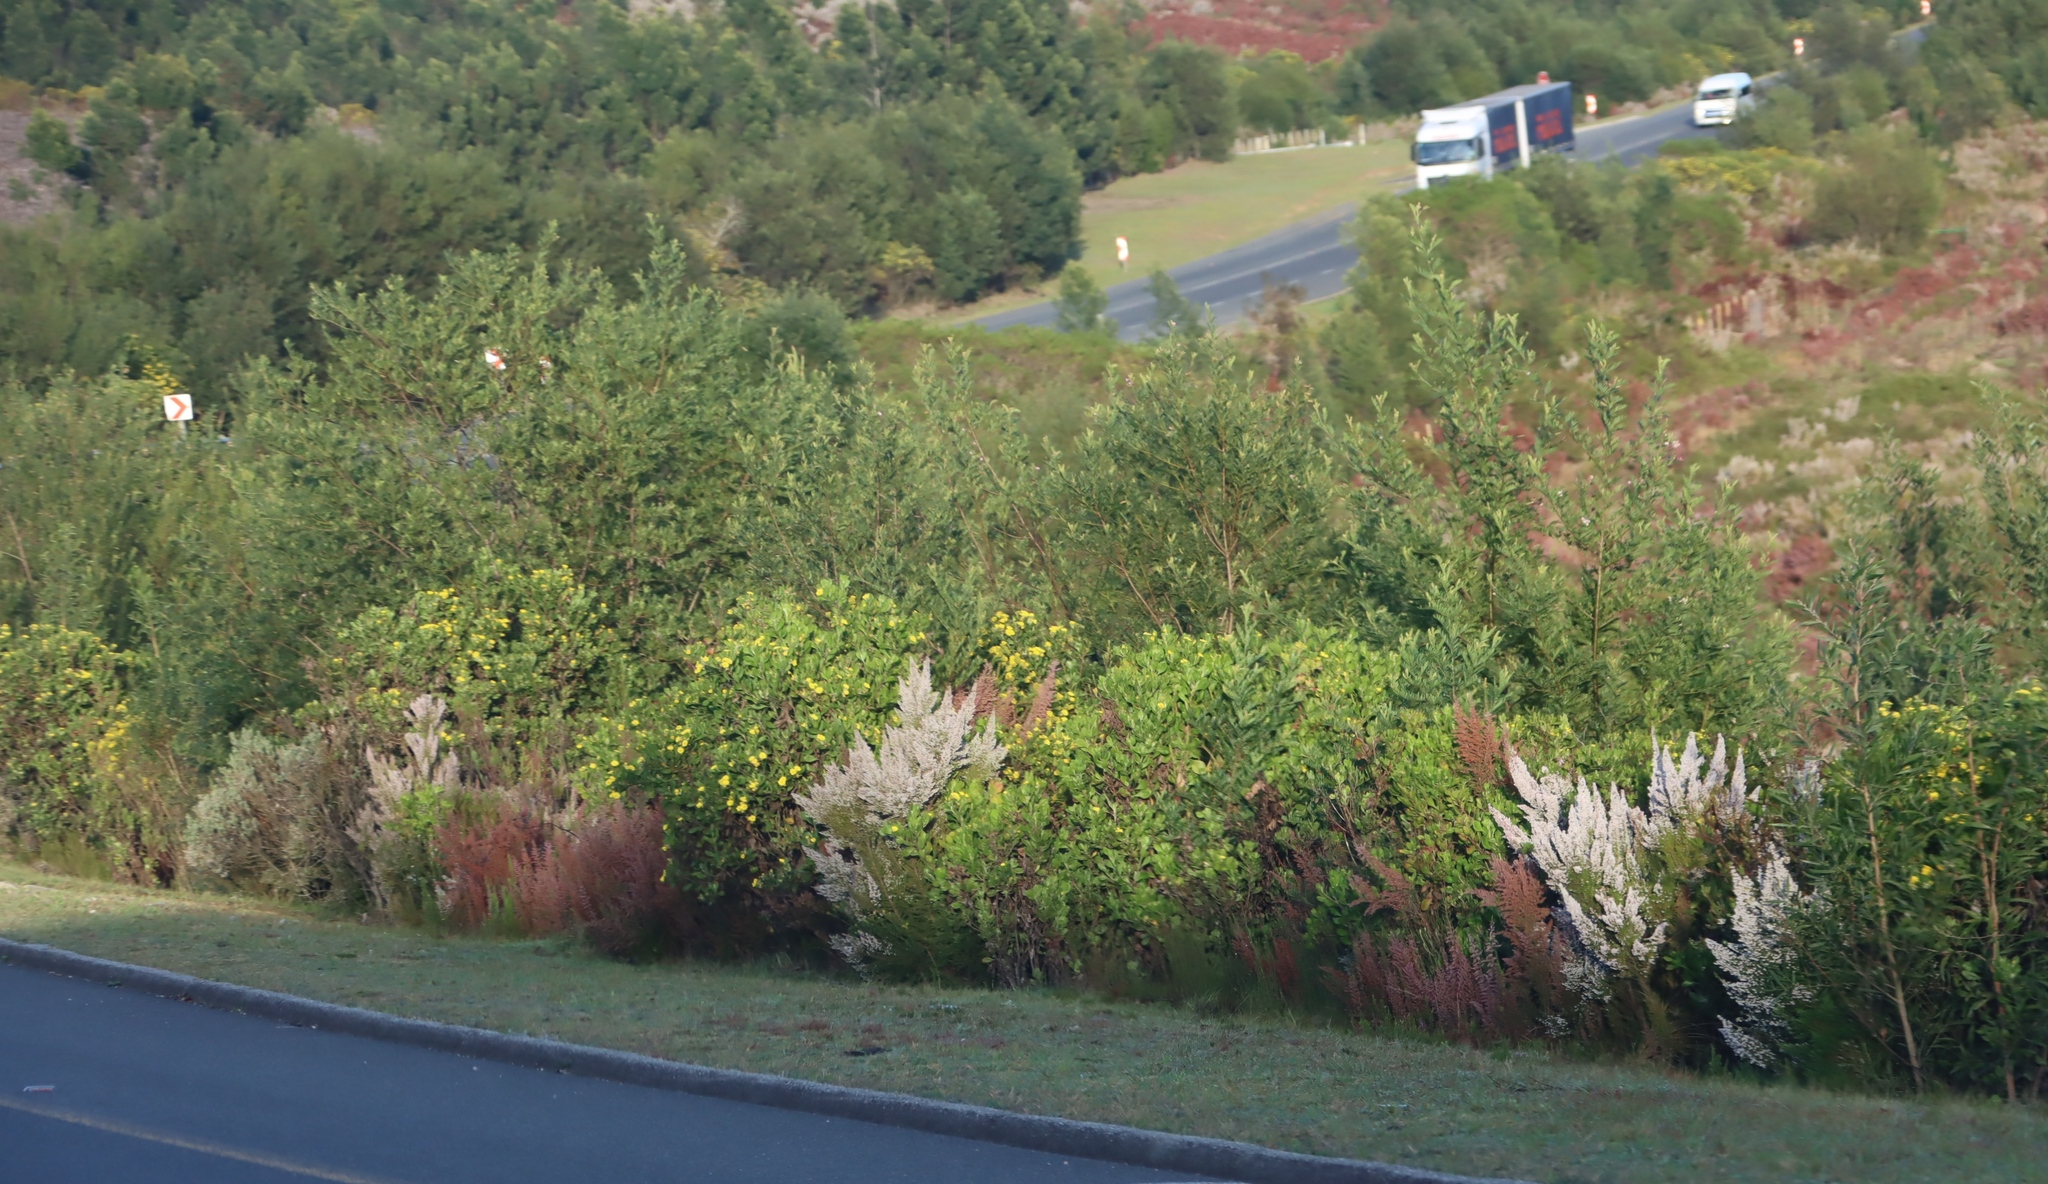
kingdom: Plantae
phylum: Tracheophyta
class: Magnoliopsida
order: Asterales
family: Asteraceae
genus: Osteospermum
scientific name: Osteospermum moniliferum
